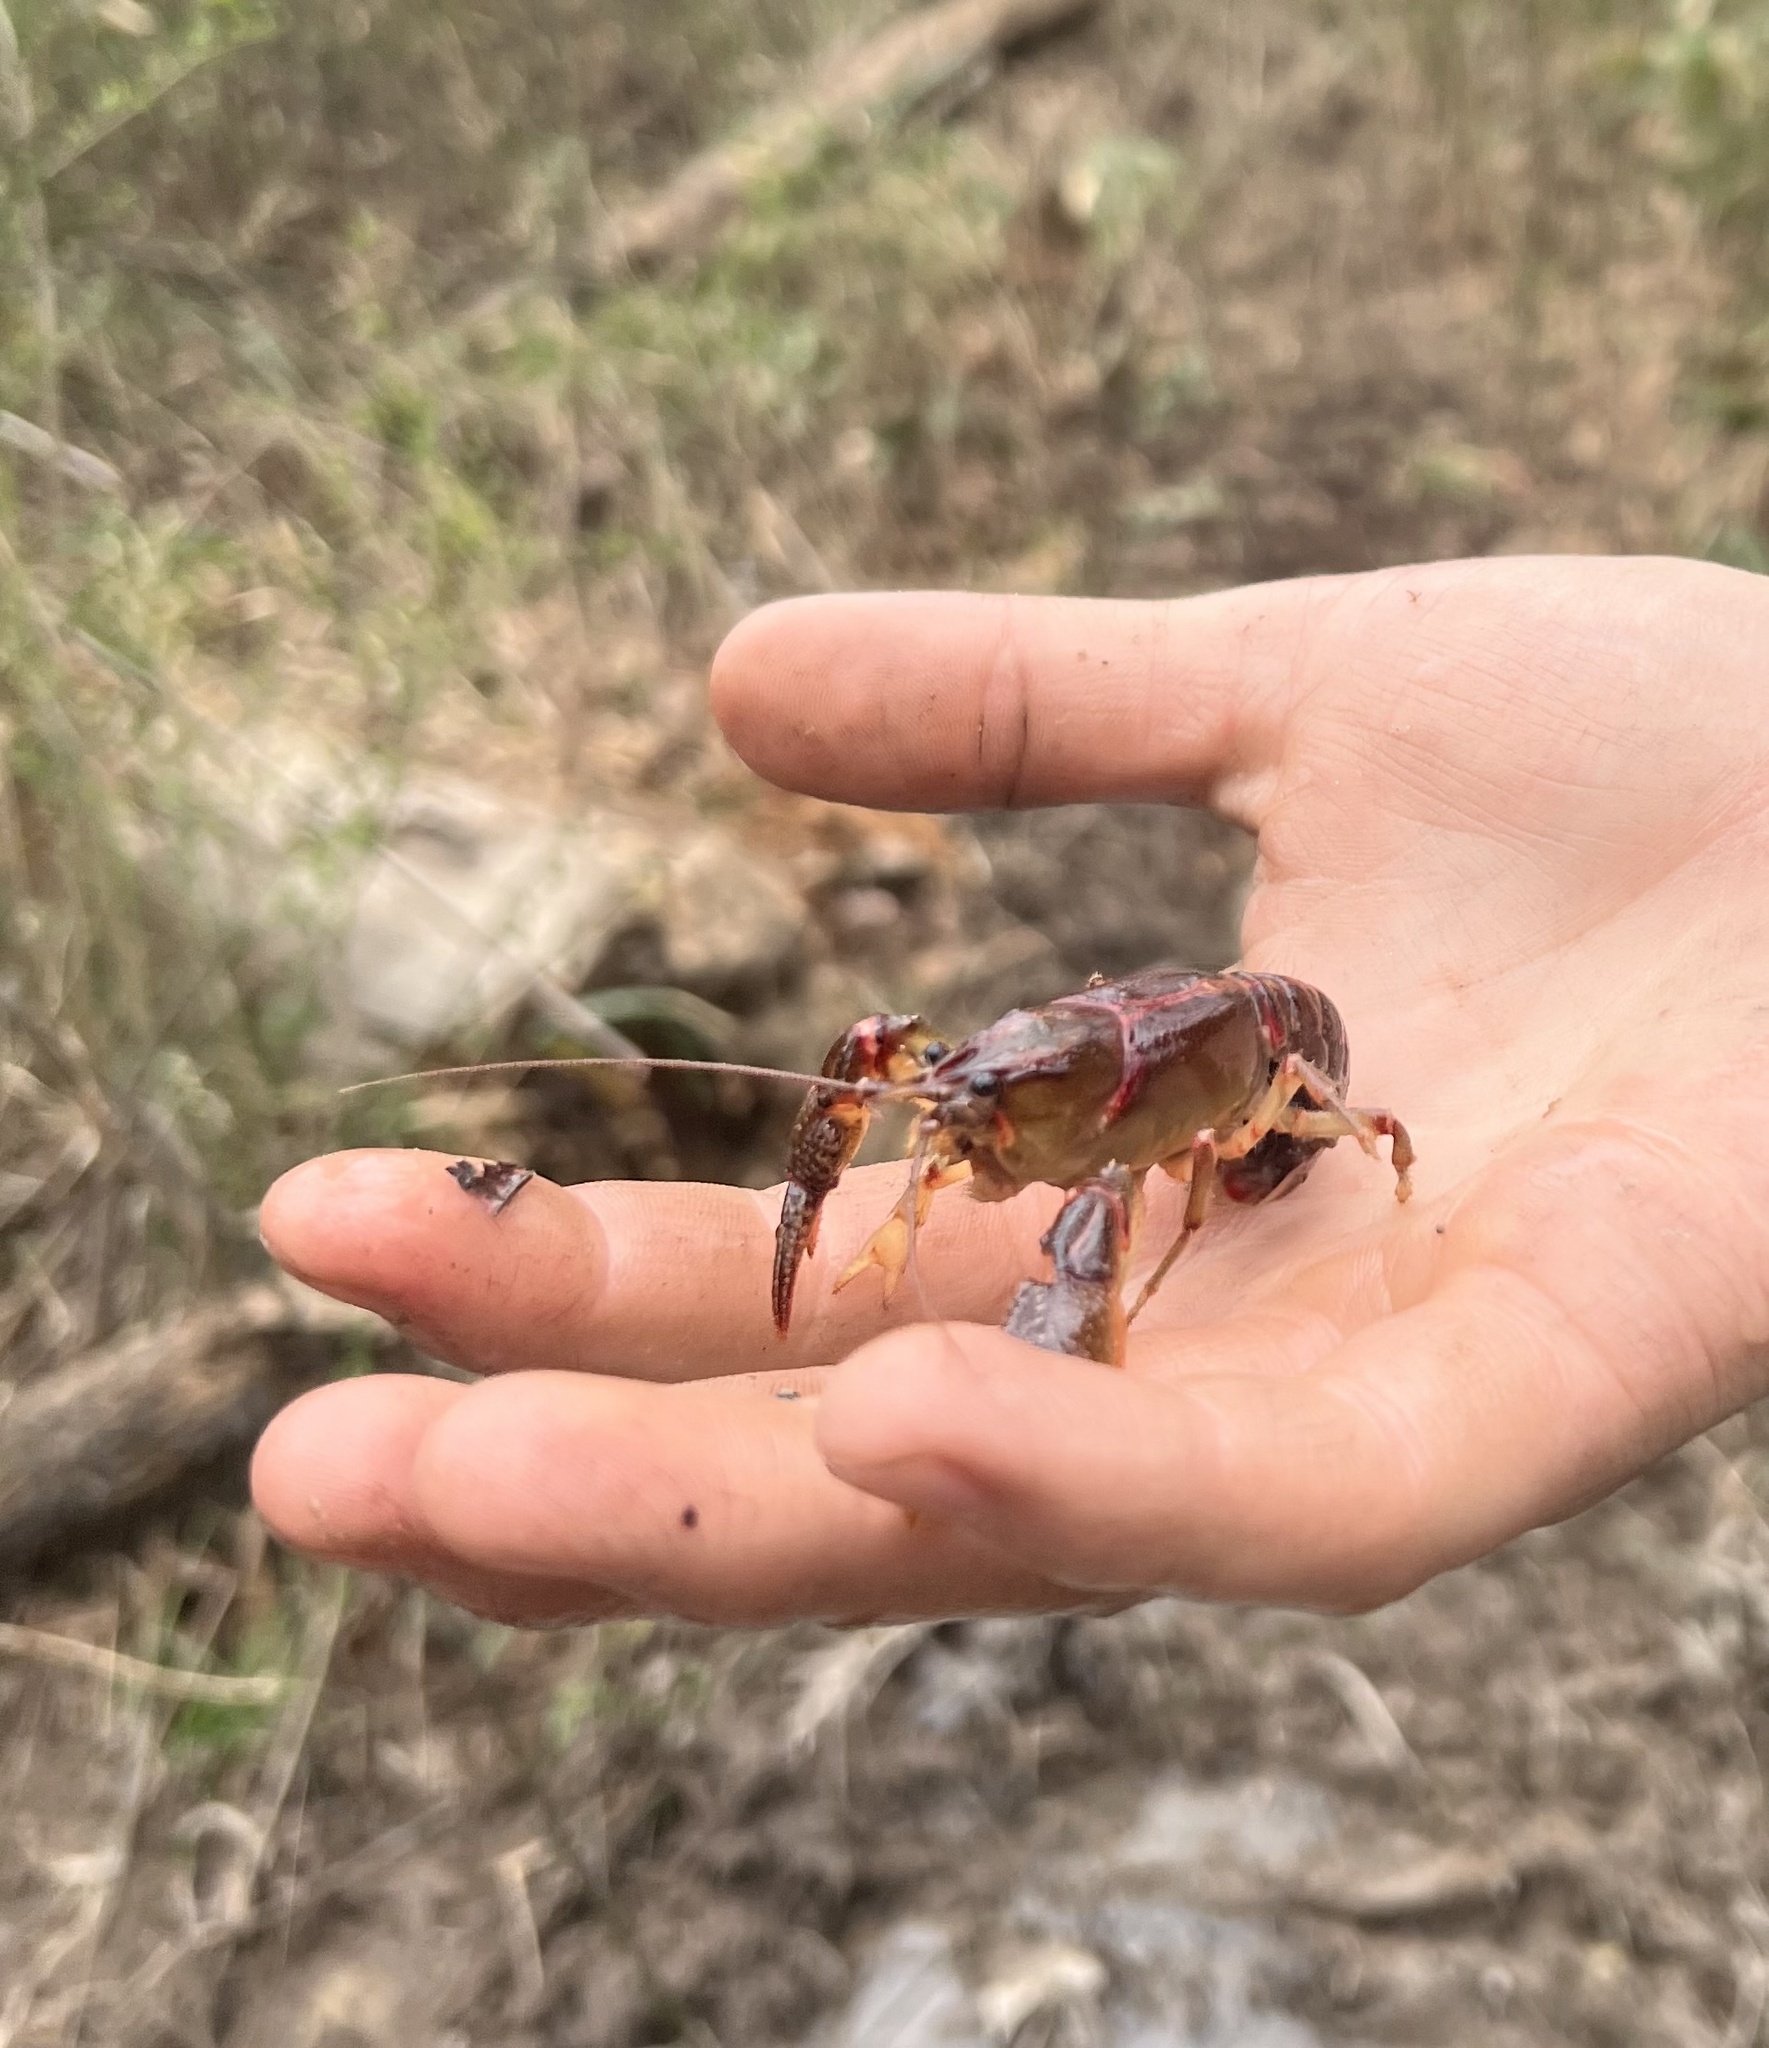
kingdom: Animalia
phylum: Arthropoda
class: Malacostraca
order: Decapoda
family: Cambaridae
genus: Lacunicambarus
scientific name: Lacunicambarus ludovicianus
